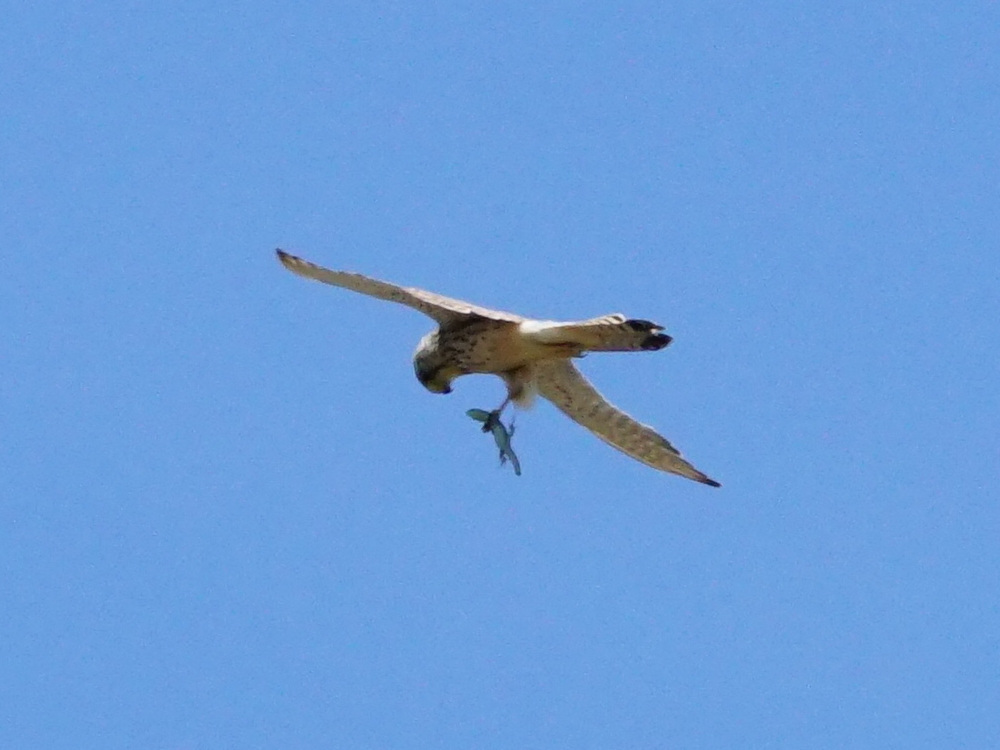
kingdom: Animalia
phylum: Chordata
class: Aves
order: Falconiformes
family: Falconidae
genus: Falco
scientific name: Falco tinnunculus
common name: Common kestrel
